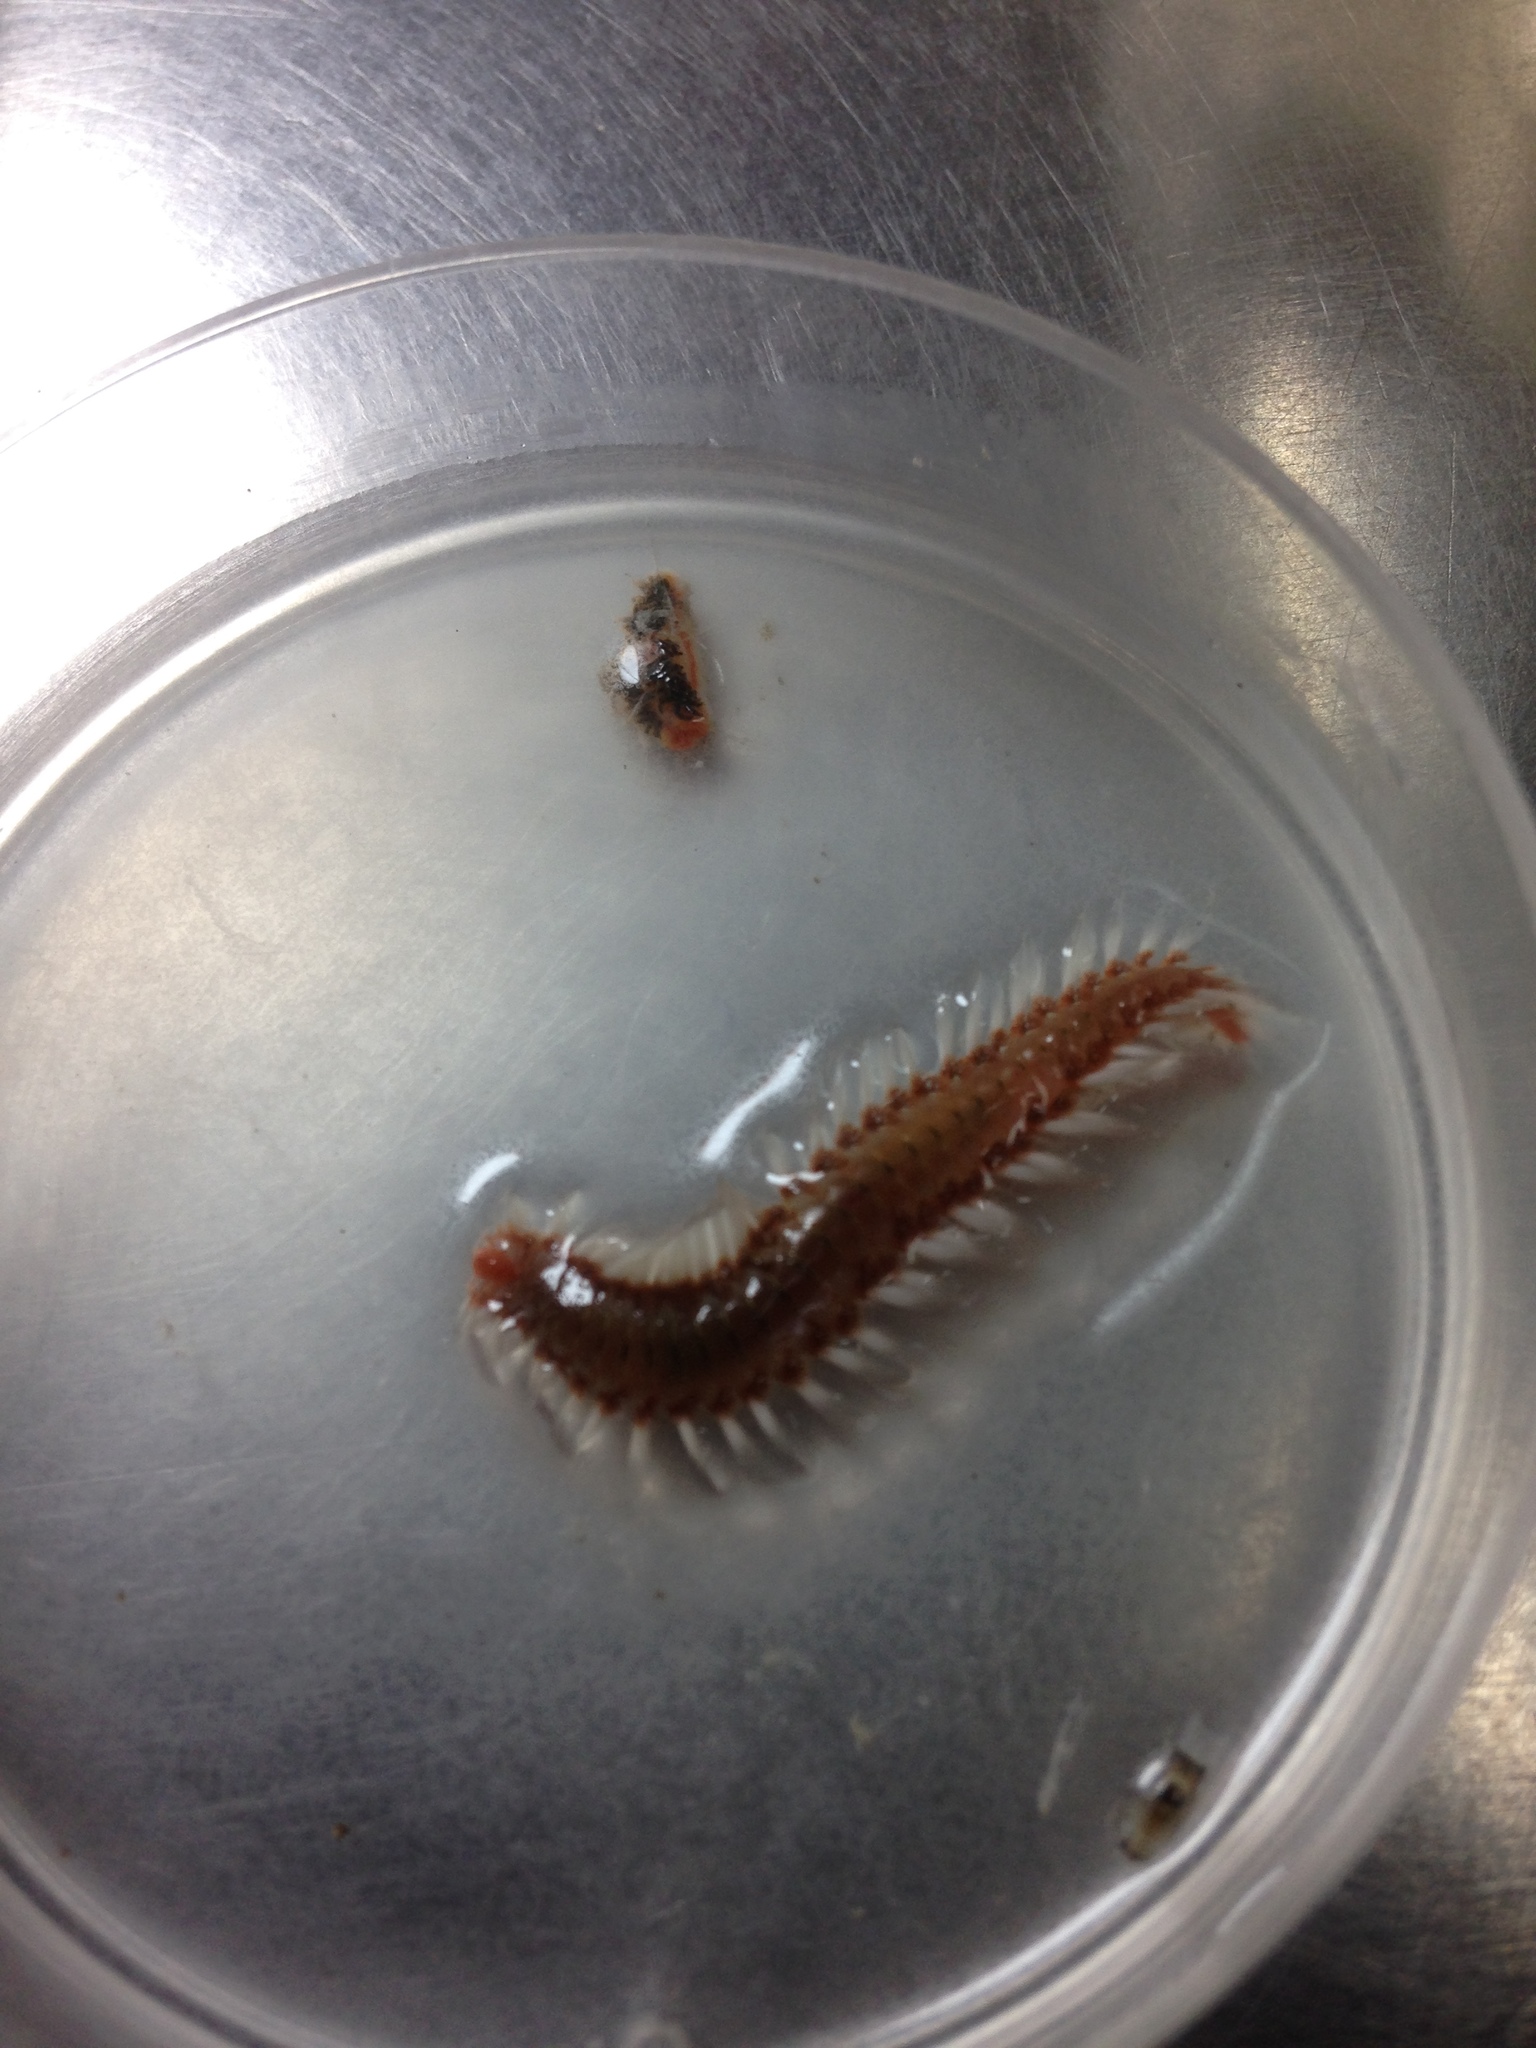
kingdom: Animalia
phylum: Annelida
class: Polychaeta
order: Amphinomida
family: Amphinomidae
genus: Hermodice
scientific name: Hermodice carunculata
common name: Bearded fireworm
